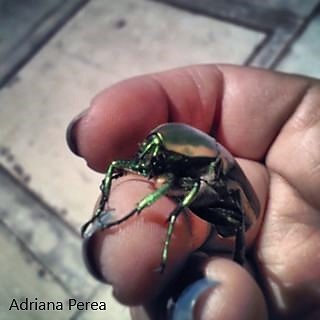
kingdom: Animalia
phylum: Arthropoda
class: Insecta
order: Coleoptera
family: Scarabaeidae
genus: Cotinis
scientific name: Cotinis mutabilis
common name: Figeater beetle
